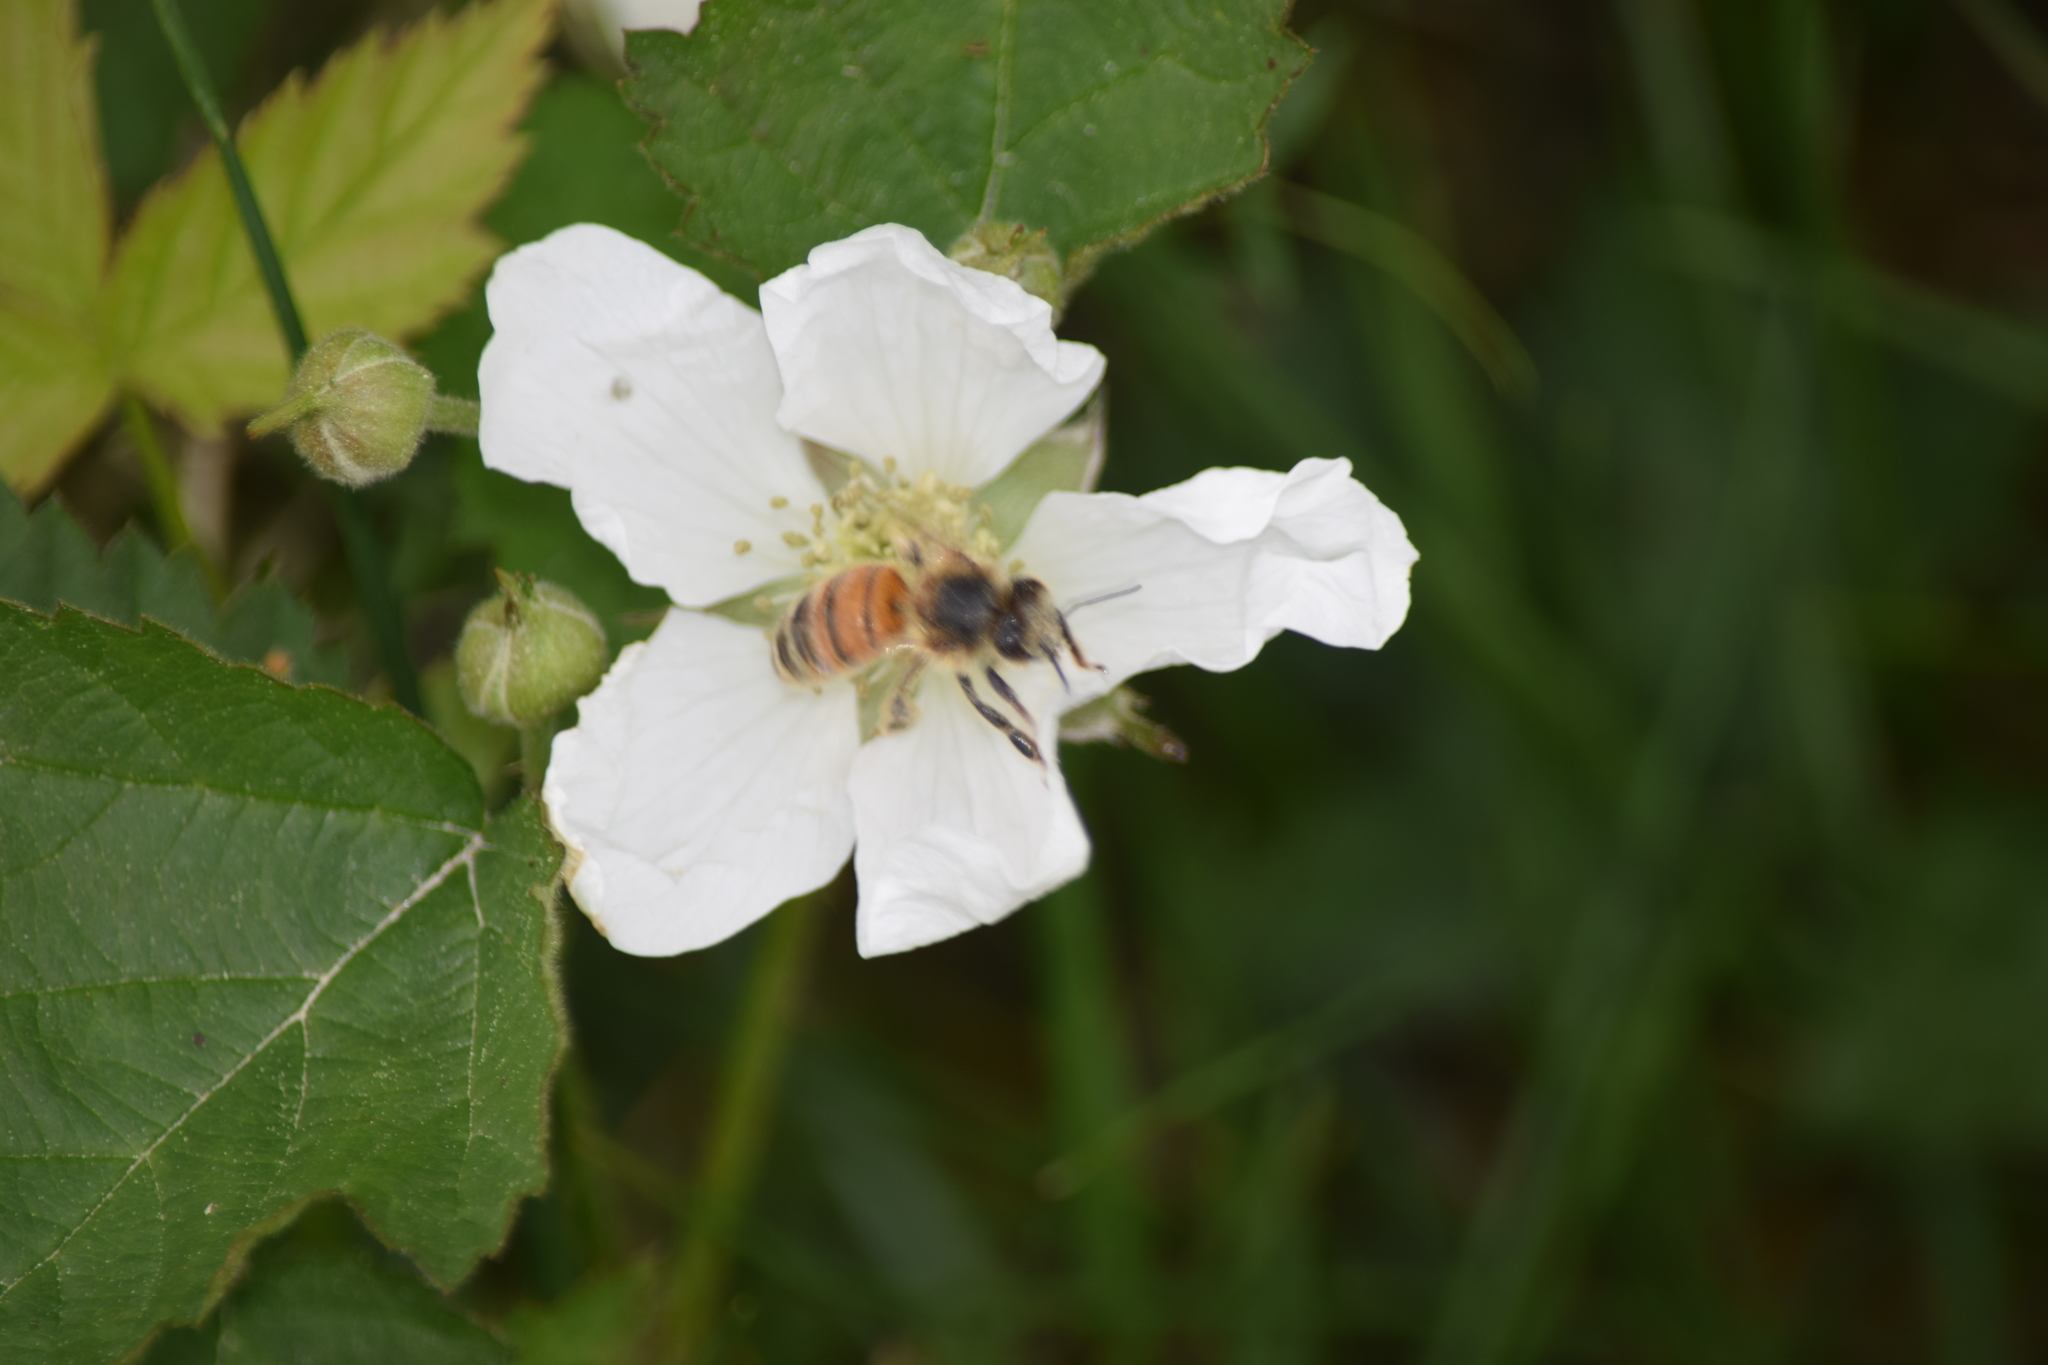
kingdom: Animalia
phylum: Arthropoda
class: Insecta
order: Hymenoptera
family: Apidae
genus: Apis
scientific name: Apis mellifera
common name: Honey bee
